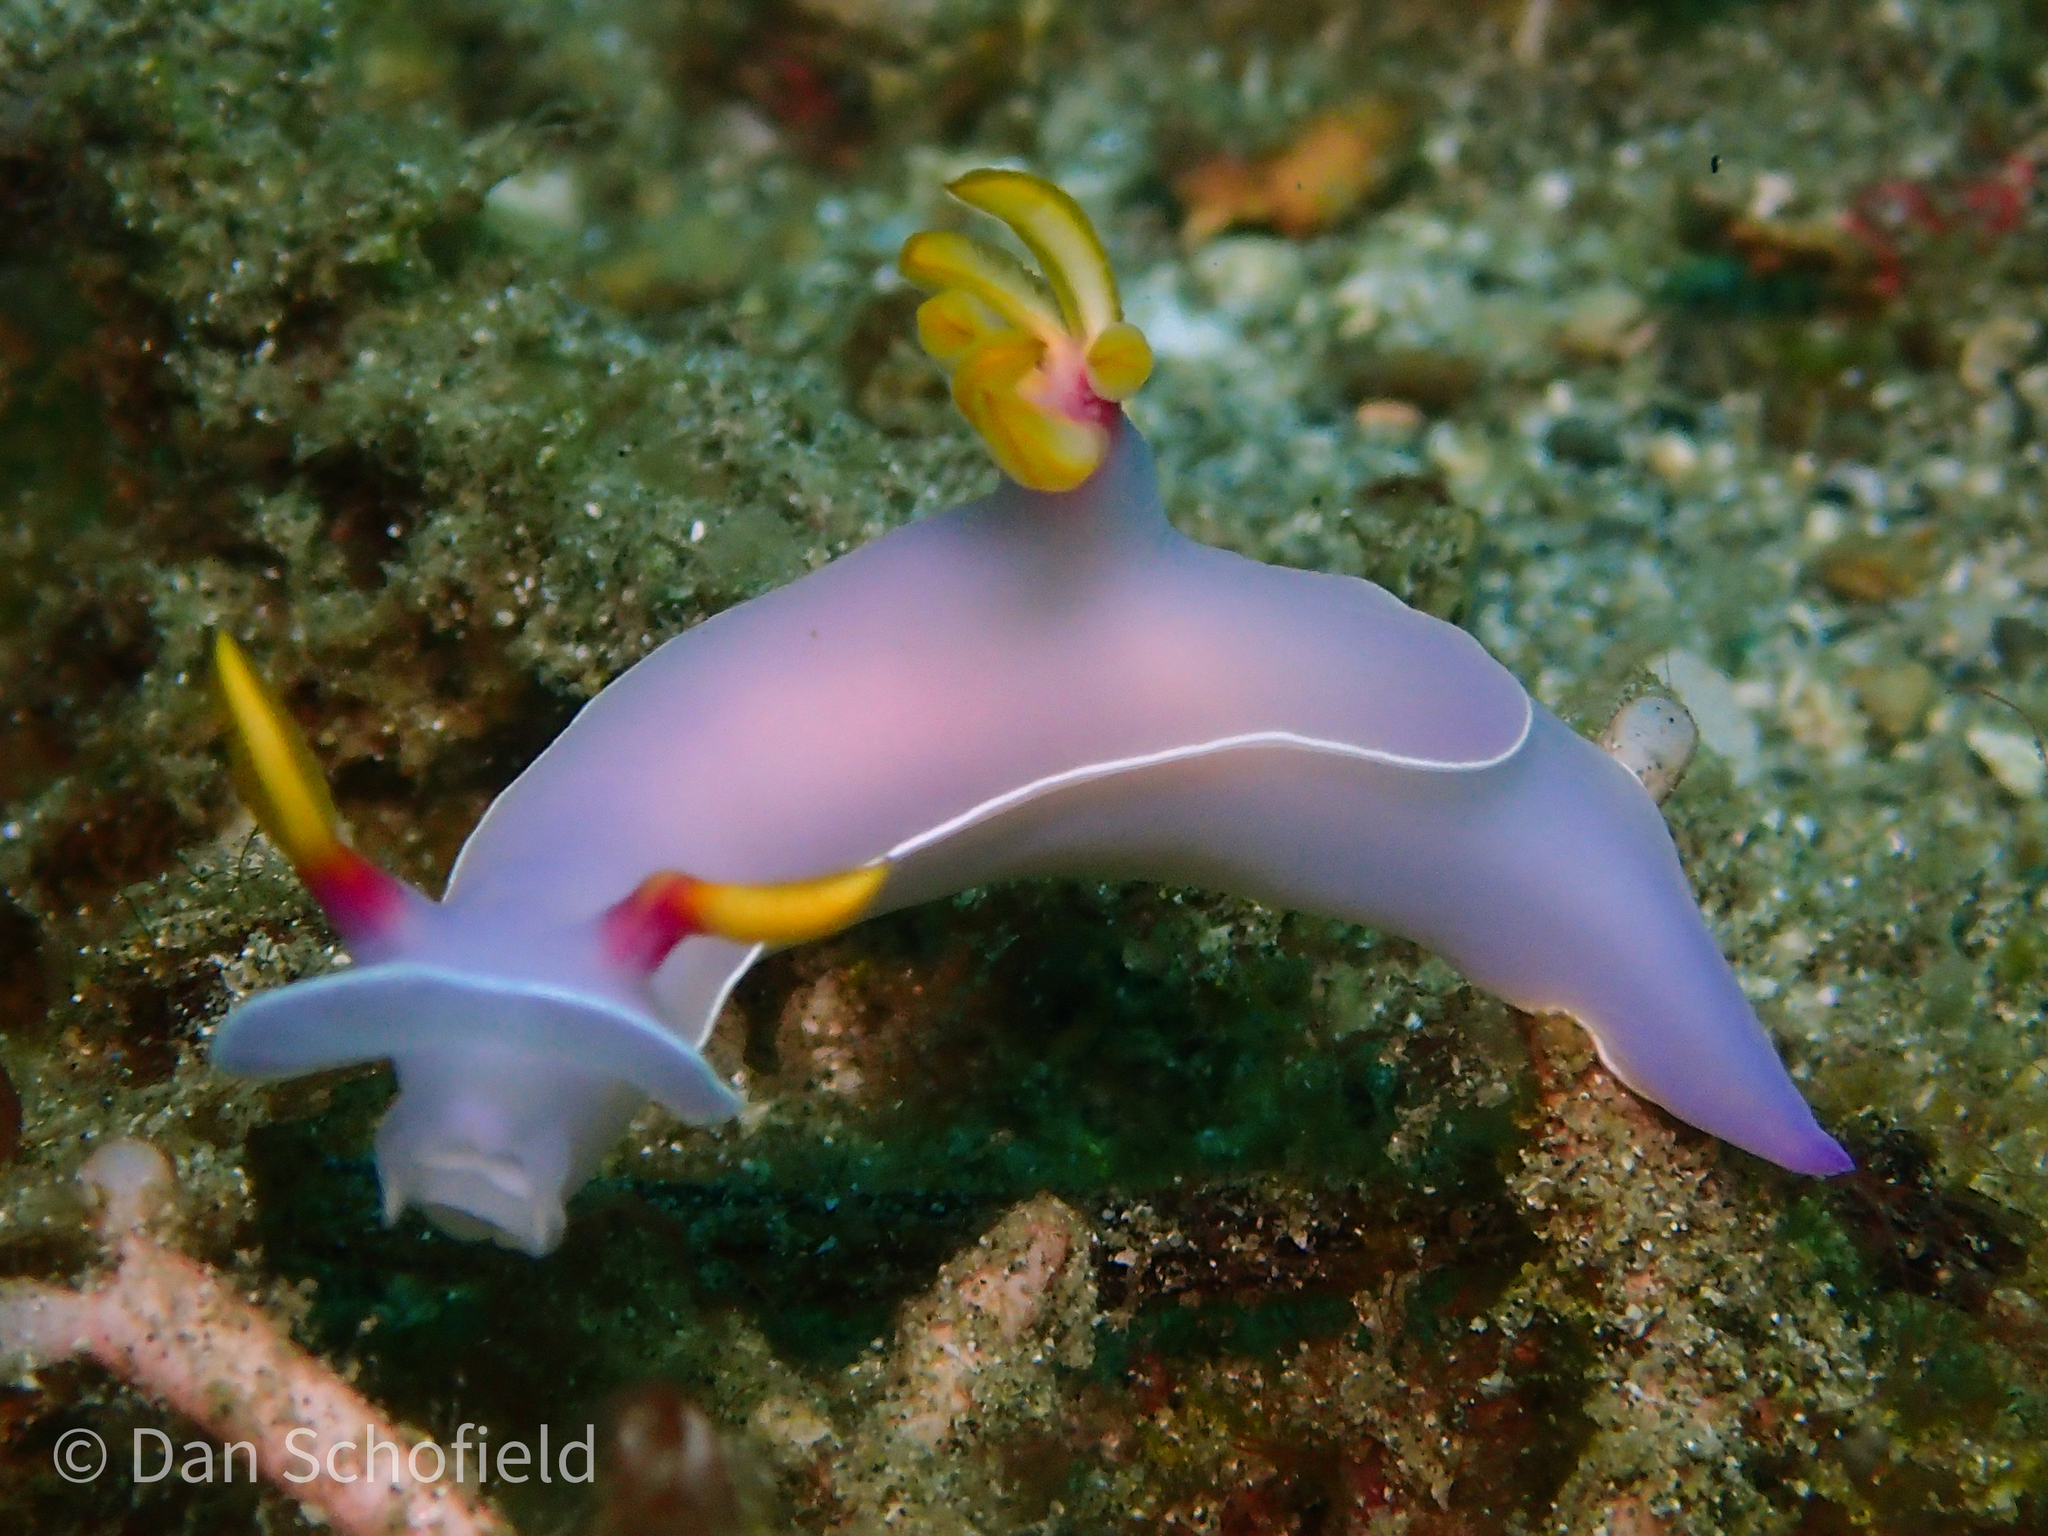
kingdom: Animalia
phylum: Mollusca
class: Gastropoda
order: Nudibranchia
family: Chromodorididae
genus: Hypselodoris
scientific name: Hypselodoris bullockii
